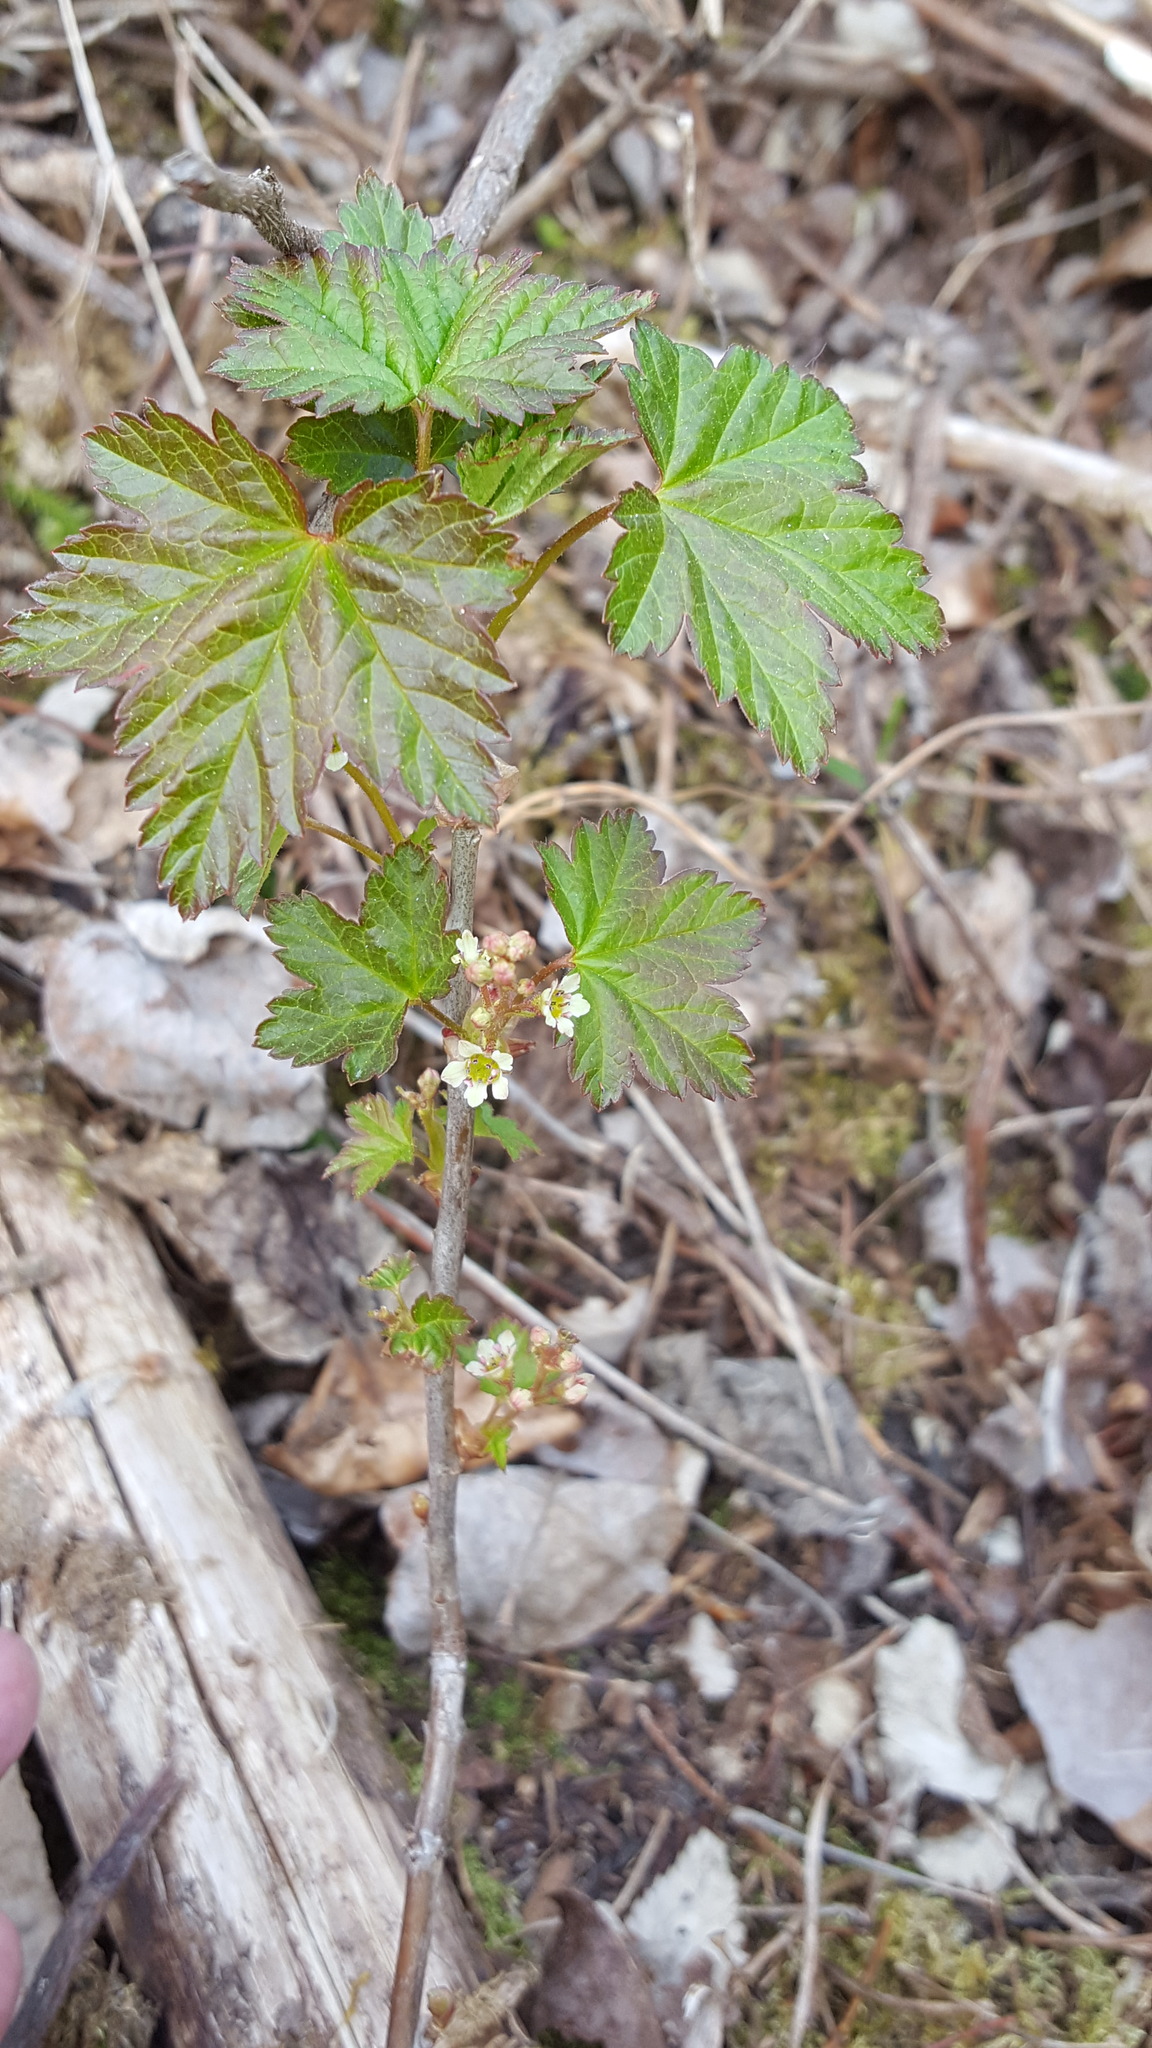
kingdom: Plantae
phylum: Tracheophyta
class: Magnoliopsida
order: Saxifragales
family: Grossulariaceae
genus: Ribes
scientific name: Ribes glandulosum
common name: Skunk currant
